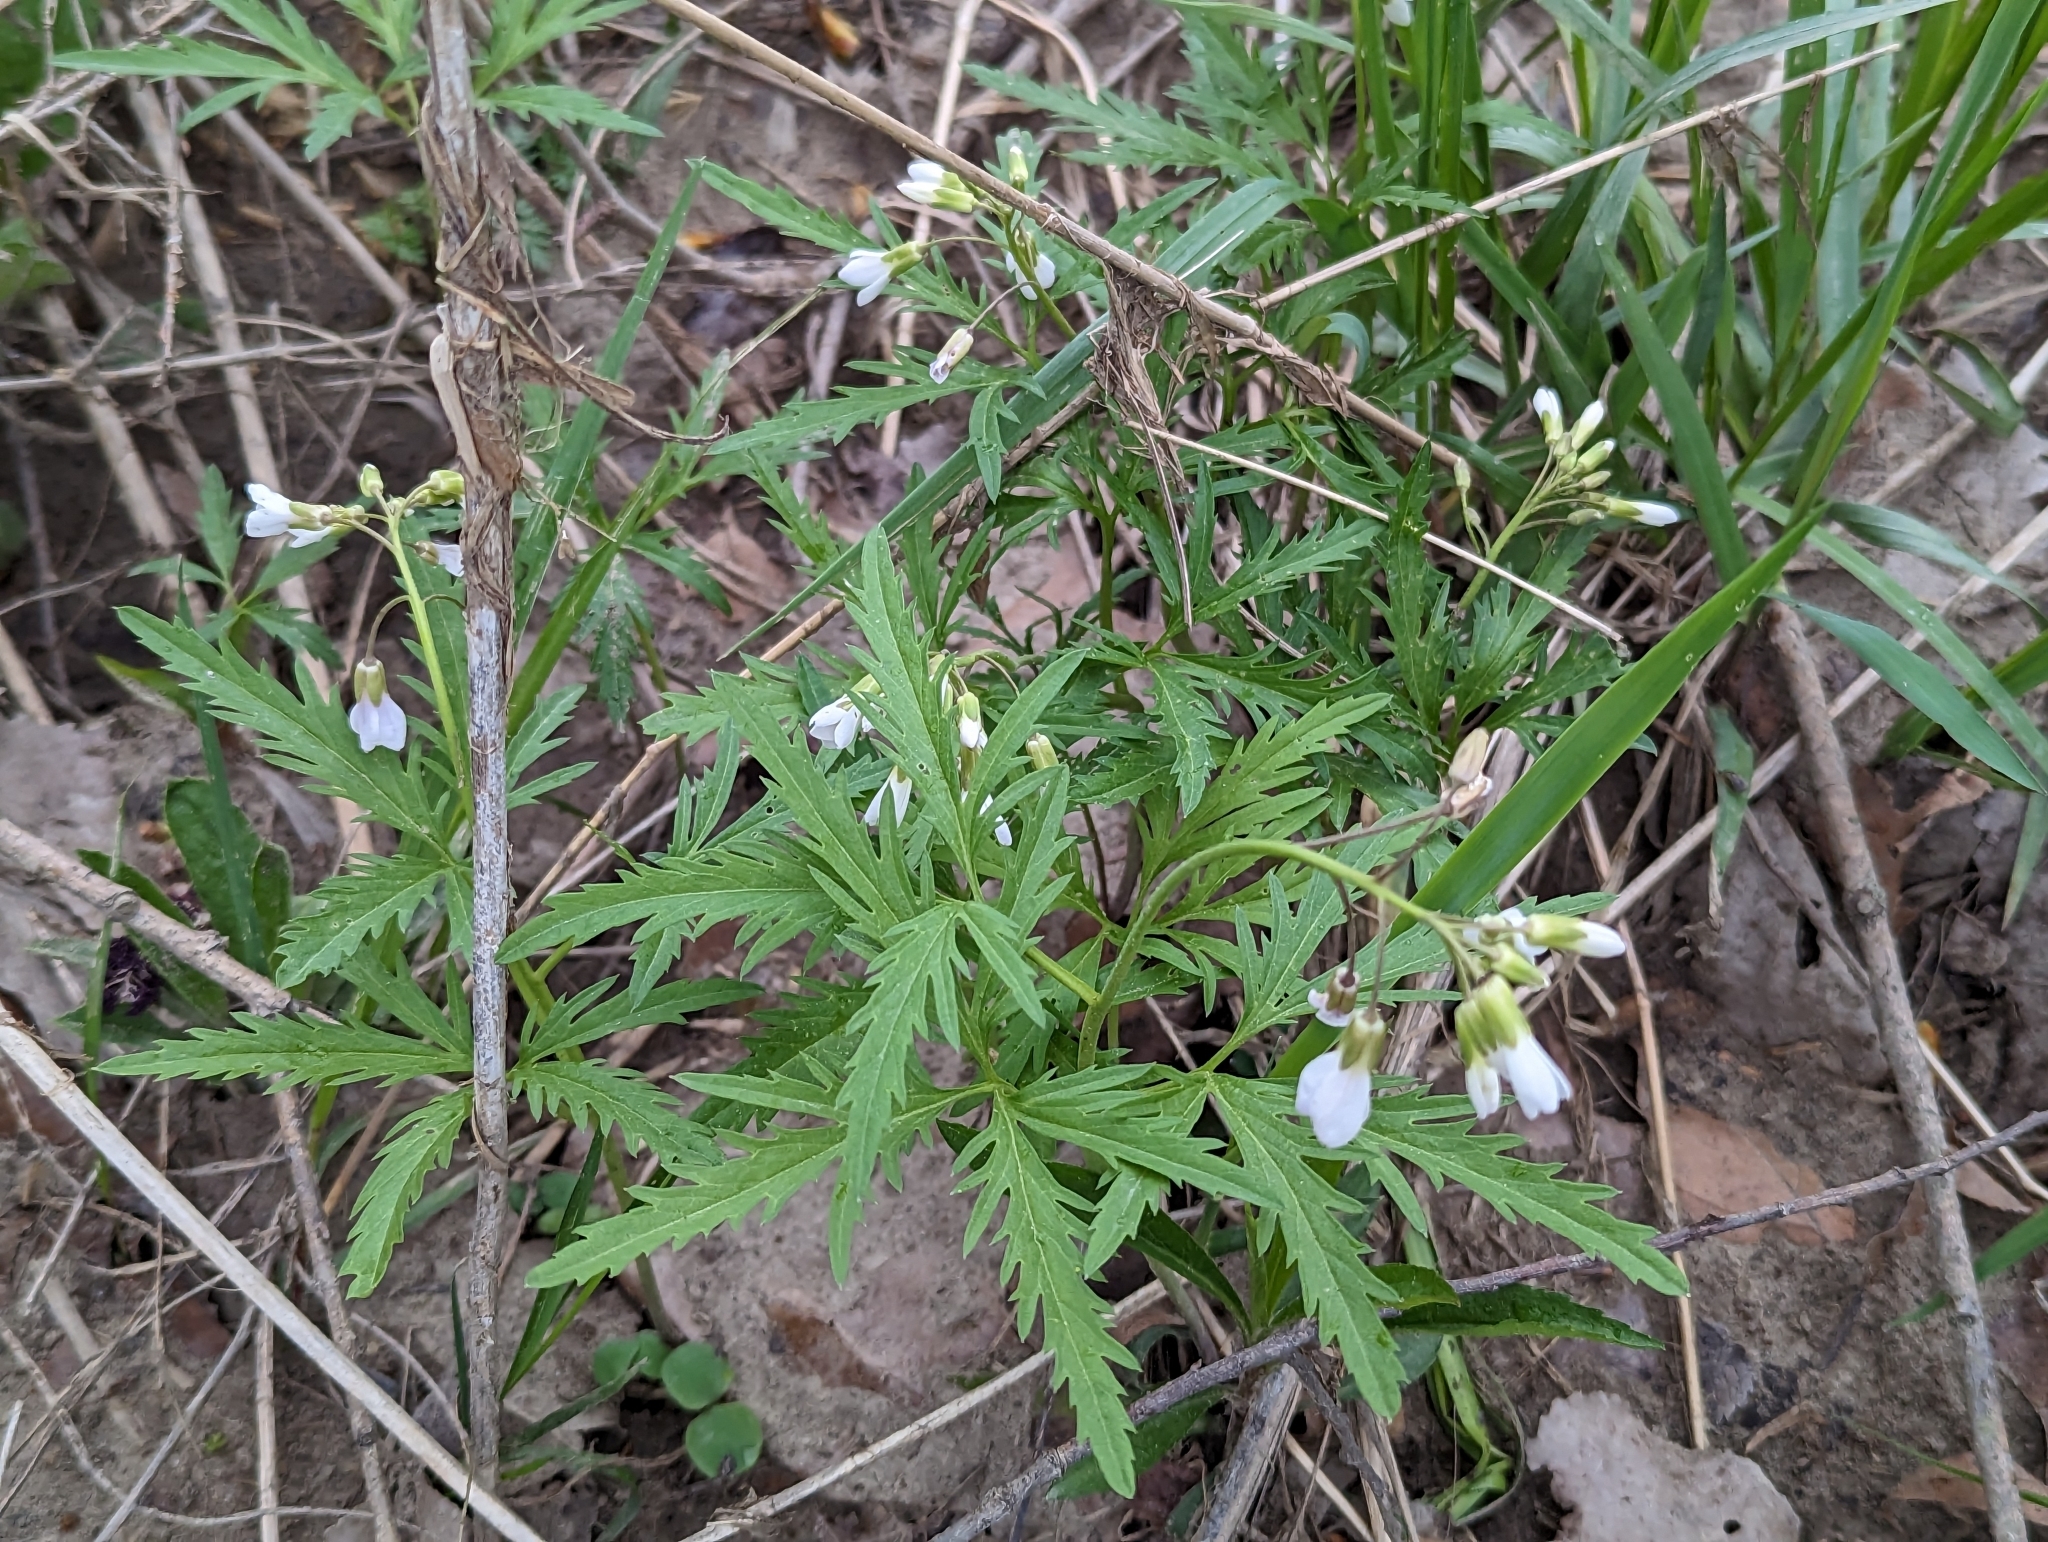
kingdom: Plantae
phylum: Tracheophyta
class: Magnoliopsida
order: Brassicales
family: Brassicaceae
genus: Cardamine
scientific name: Cardamine concatenata
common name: Cut-leaf toothcup
